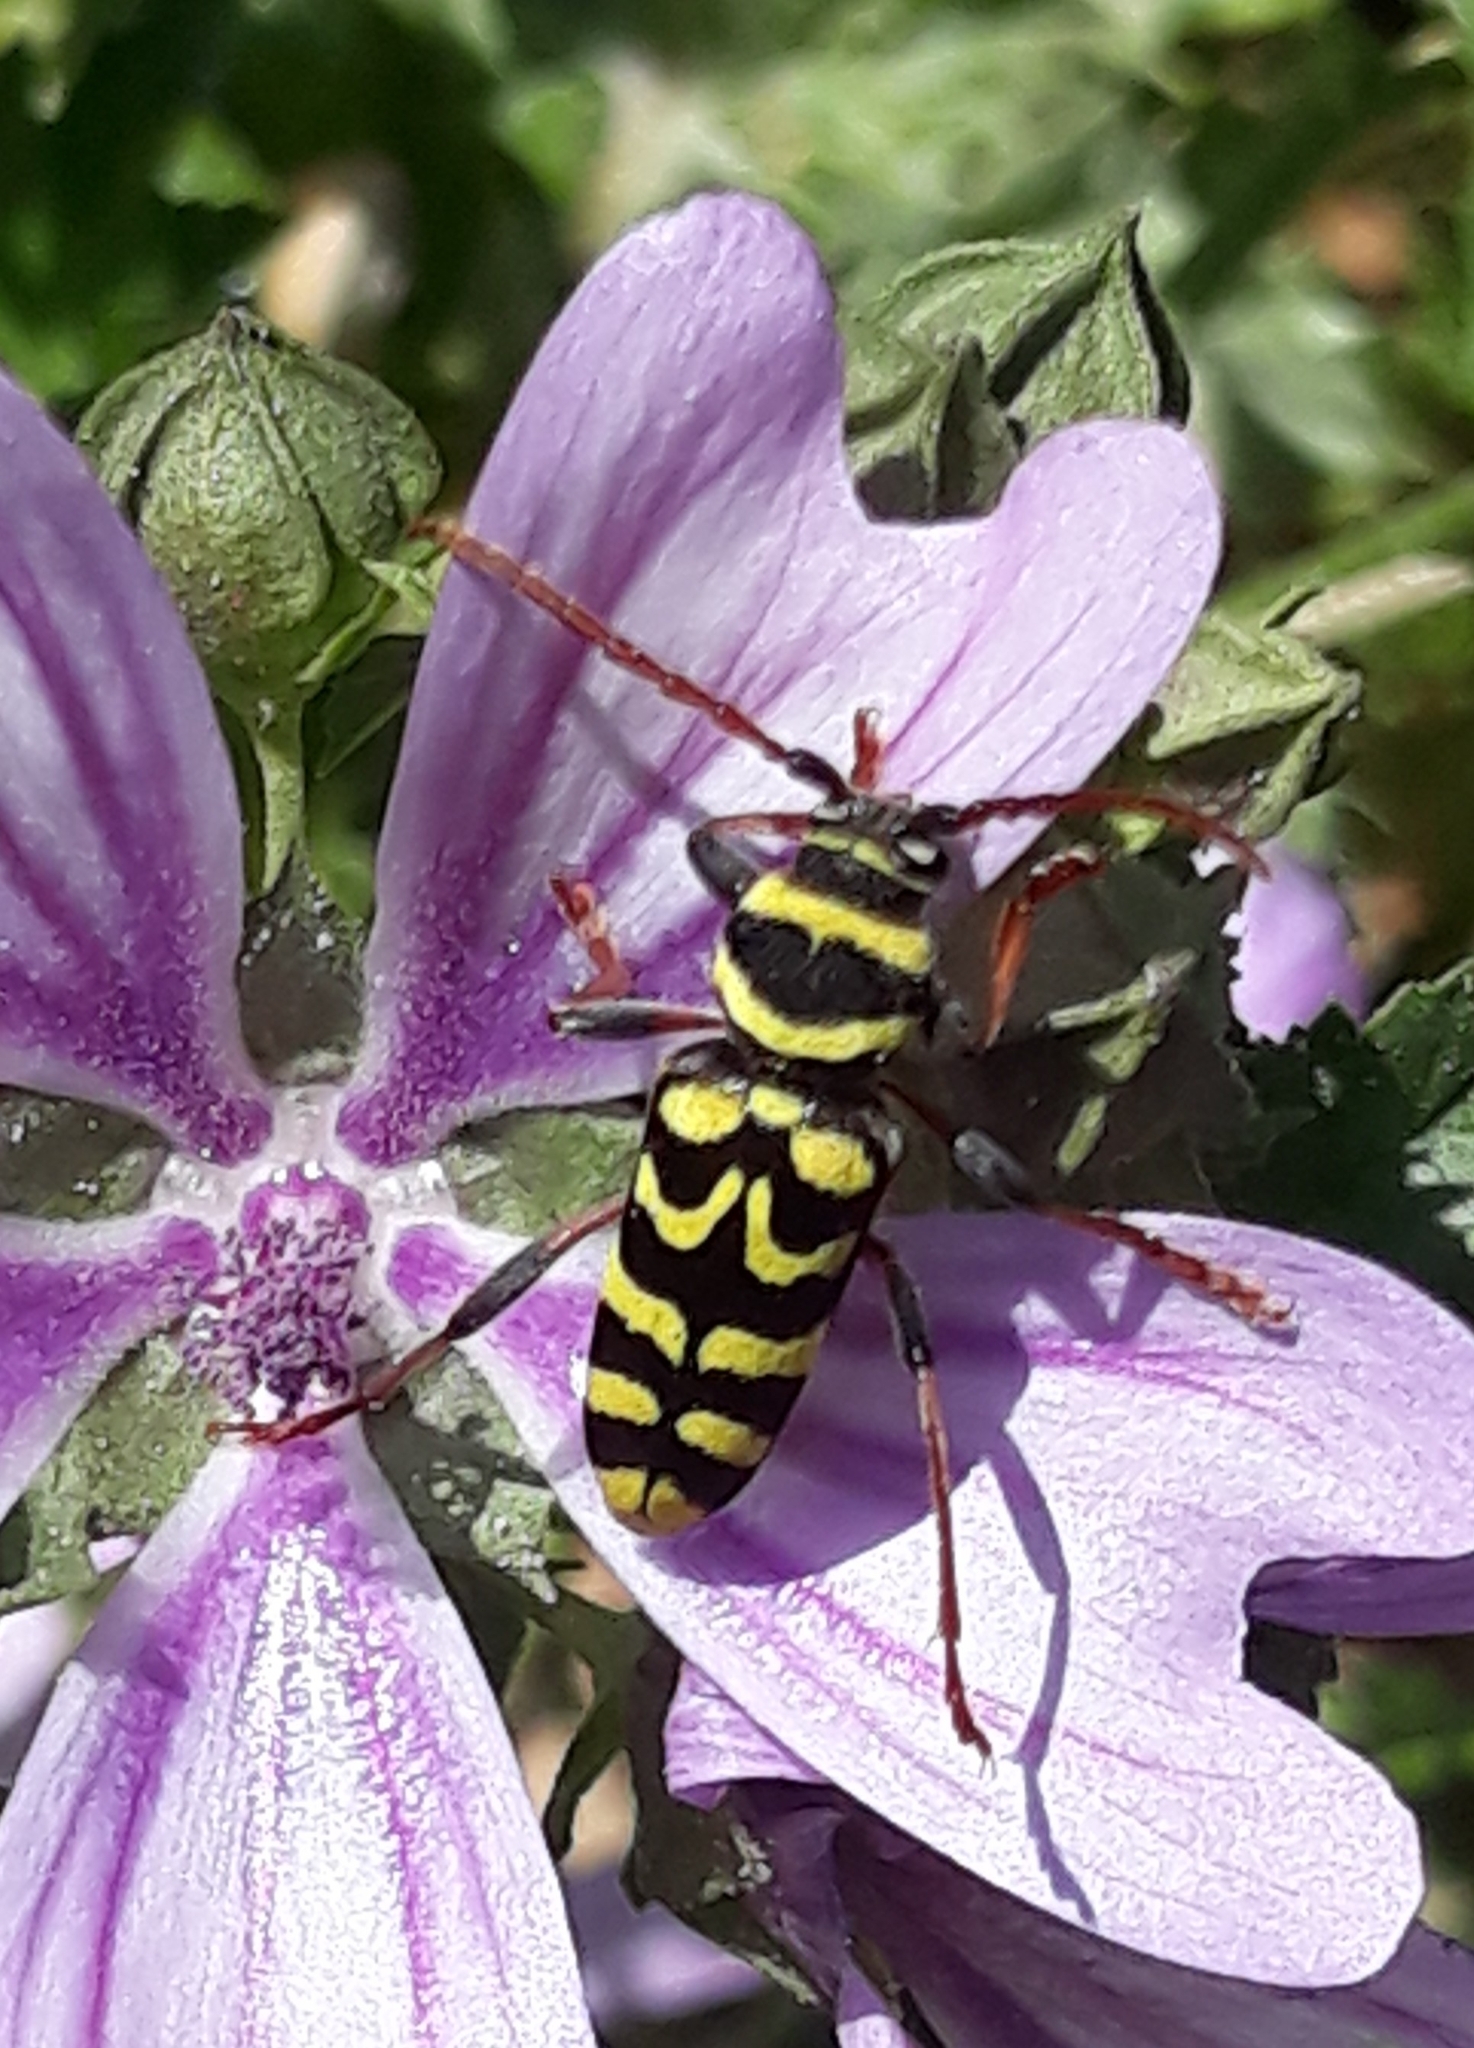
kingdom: Animalia
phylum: Arthropoda
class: Insecta
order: Coleoptera
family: Cerambycidae
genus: Neoplagionotus
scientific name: Neoplagionotus scalaris
